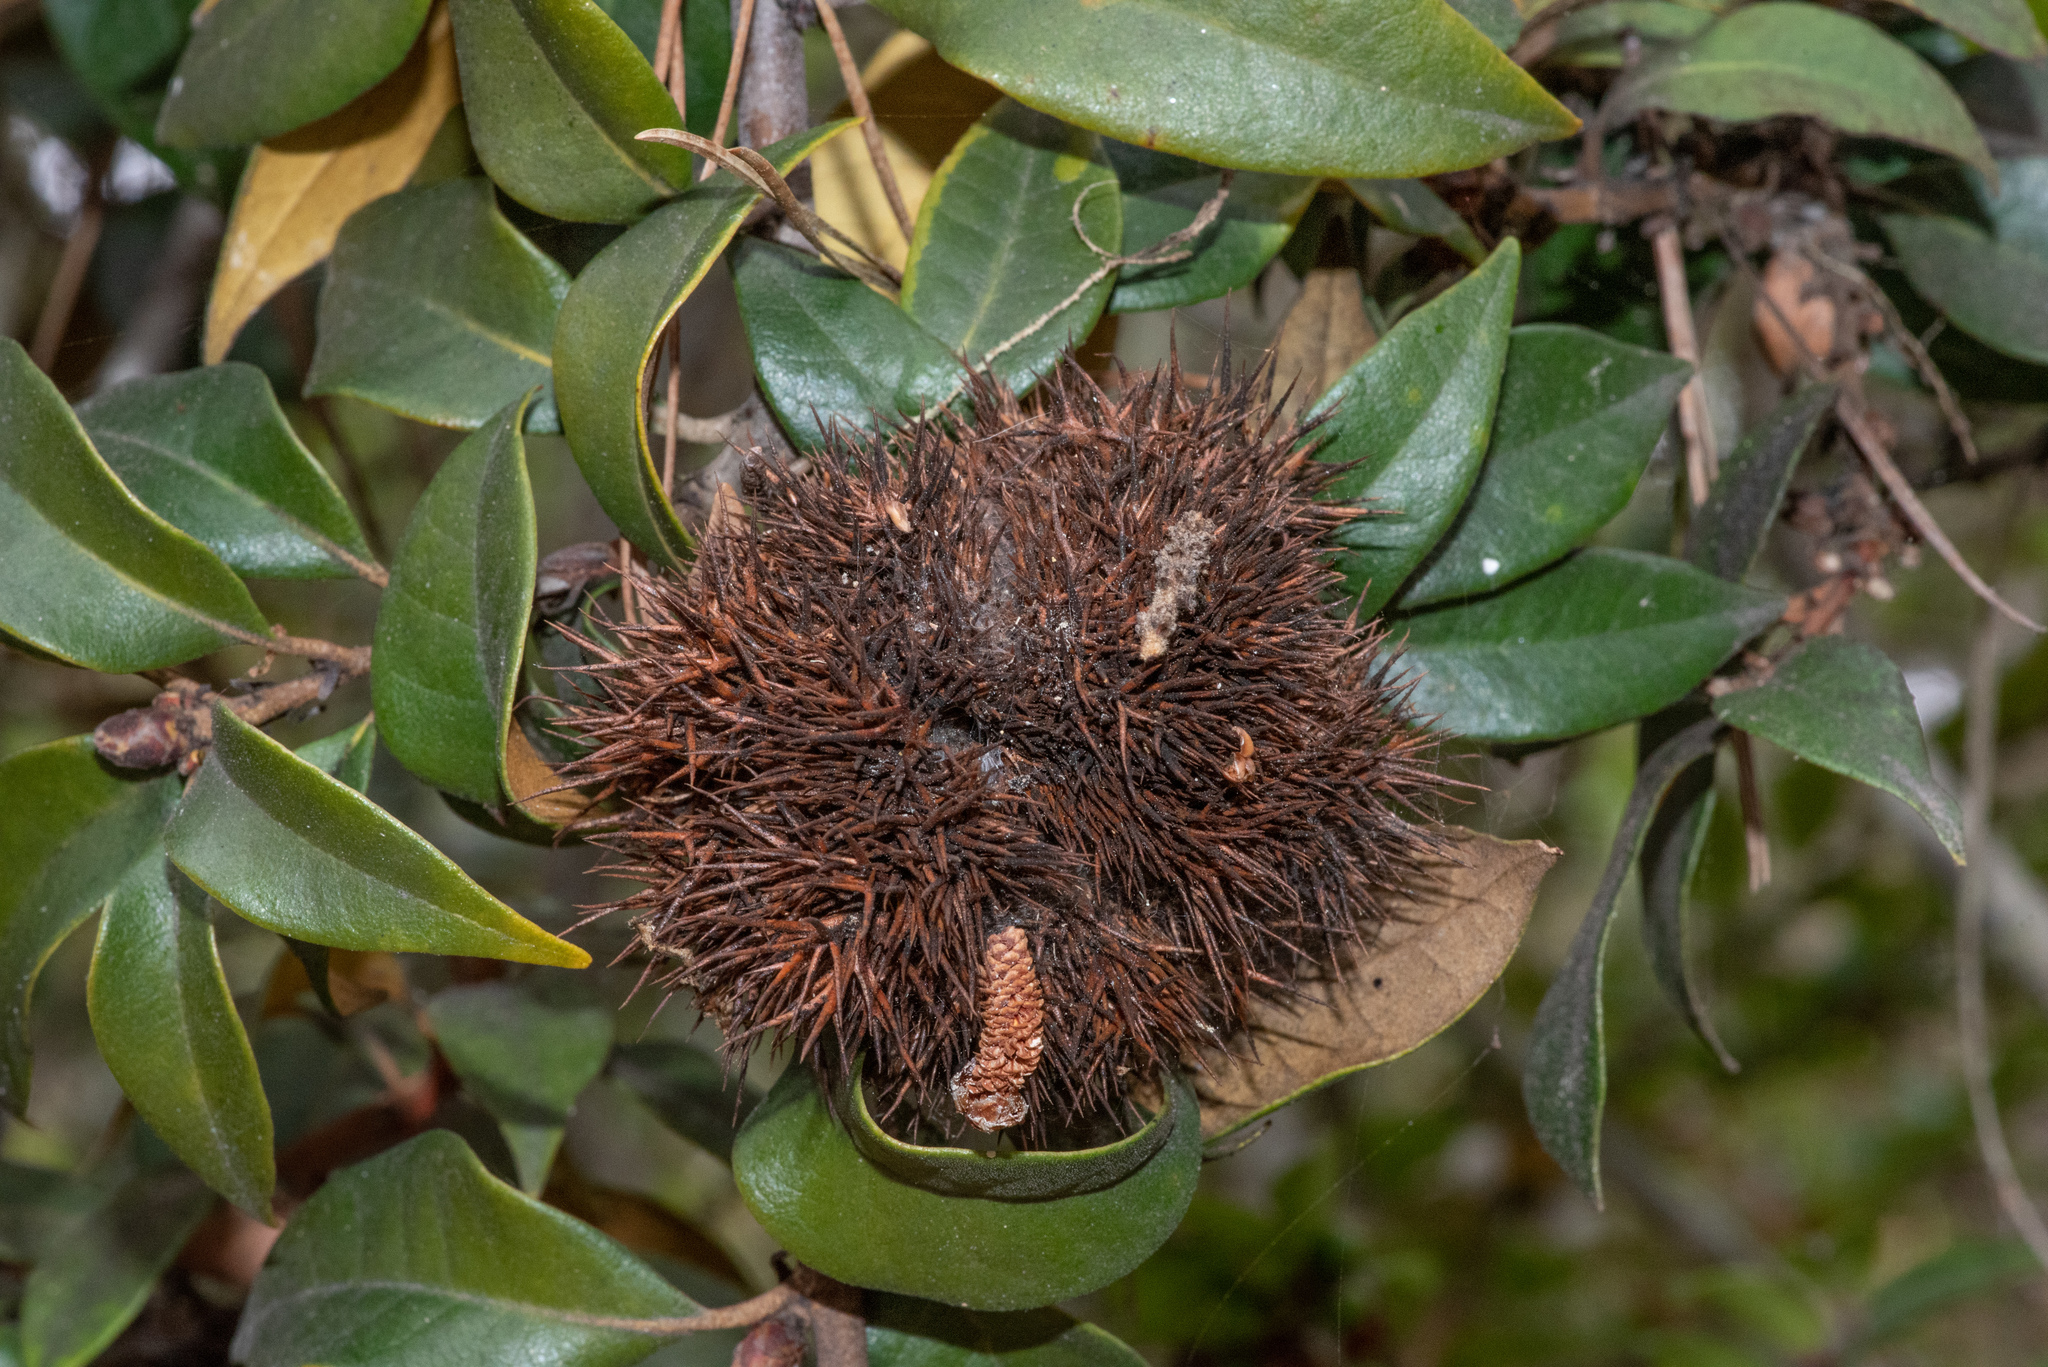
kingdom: Plantae
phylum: Tracheophyta
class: Magnoliopsida
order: Fagales
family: Fagaceae
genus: Chrysolepis
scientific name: Chrysolepis chrysophylla
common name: Giant chinquapin
